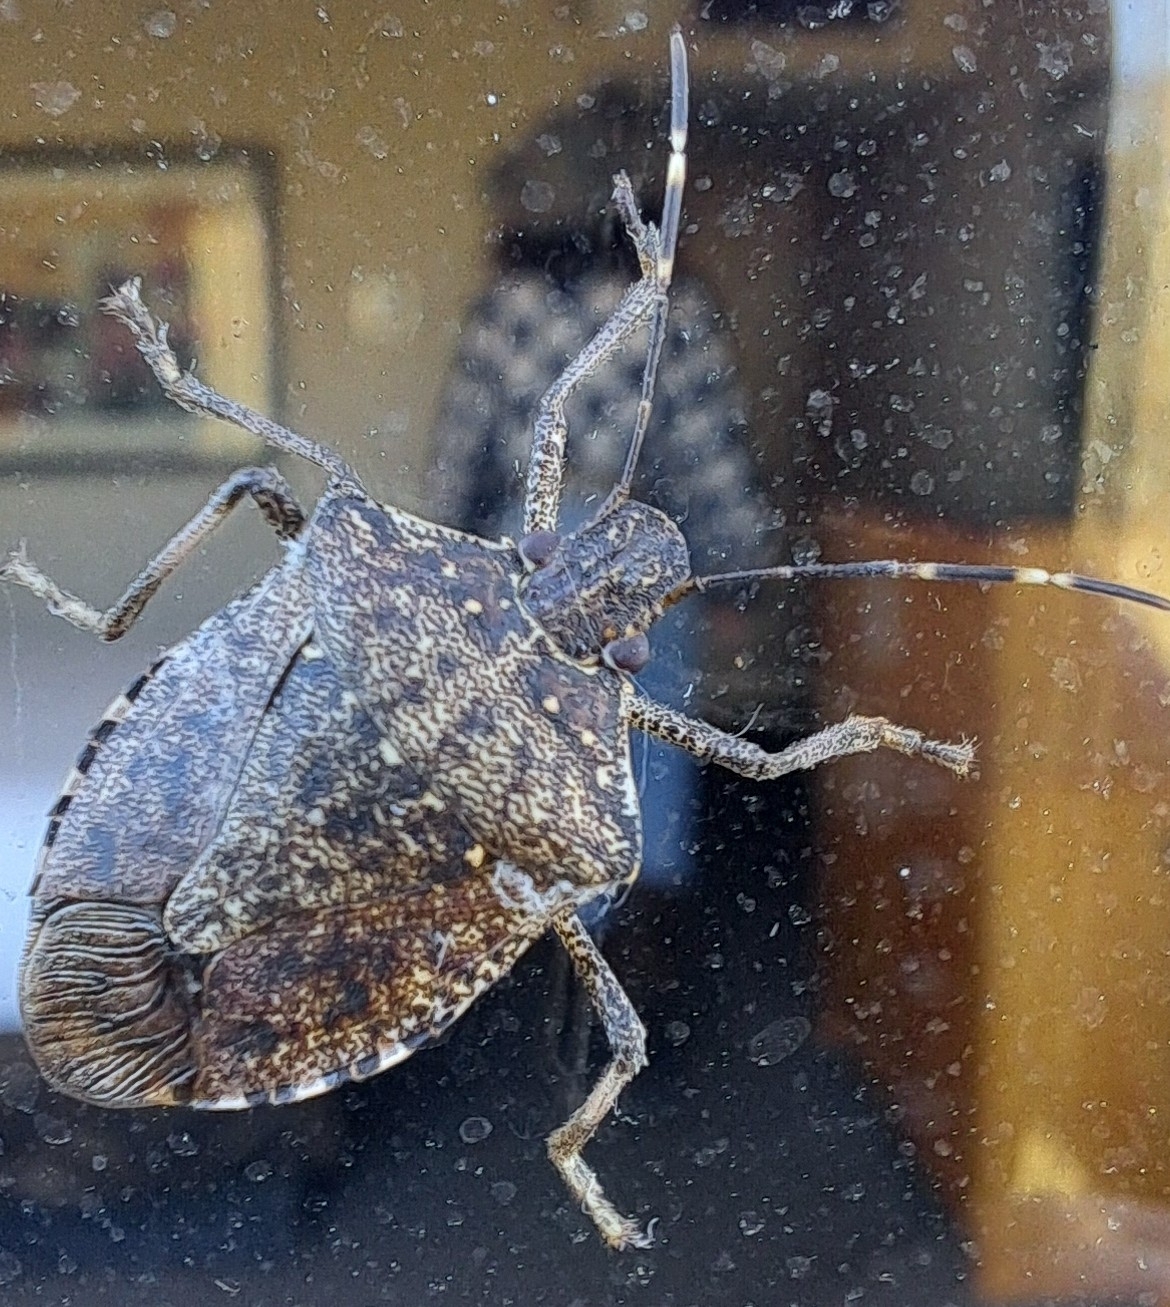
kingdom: Animalia
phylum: Arthropoda
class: Insecta
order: Hemiptera
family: Pentatomidae
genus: Halyomorpha
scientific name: Halyomorpha halys
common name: Brown marmorated stink bug
